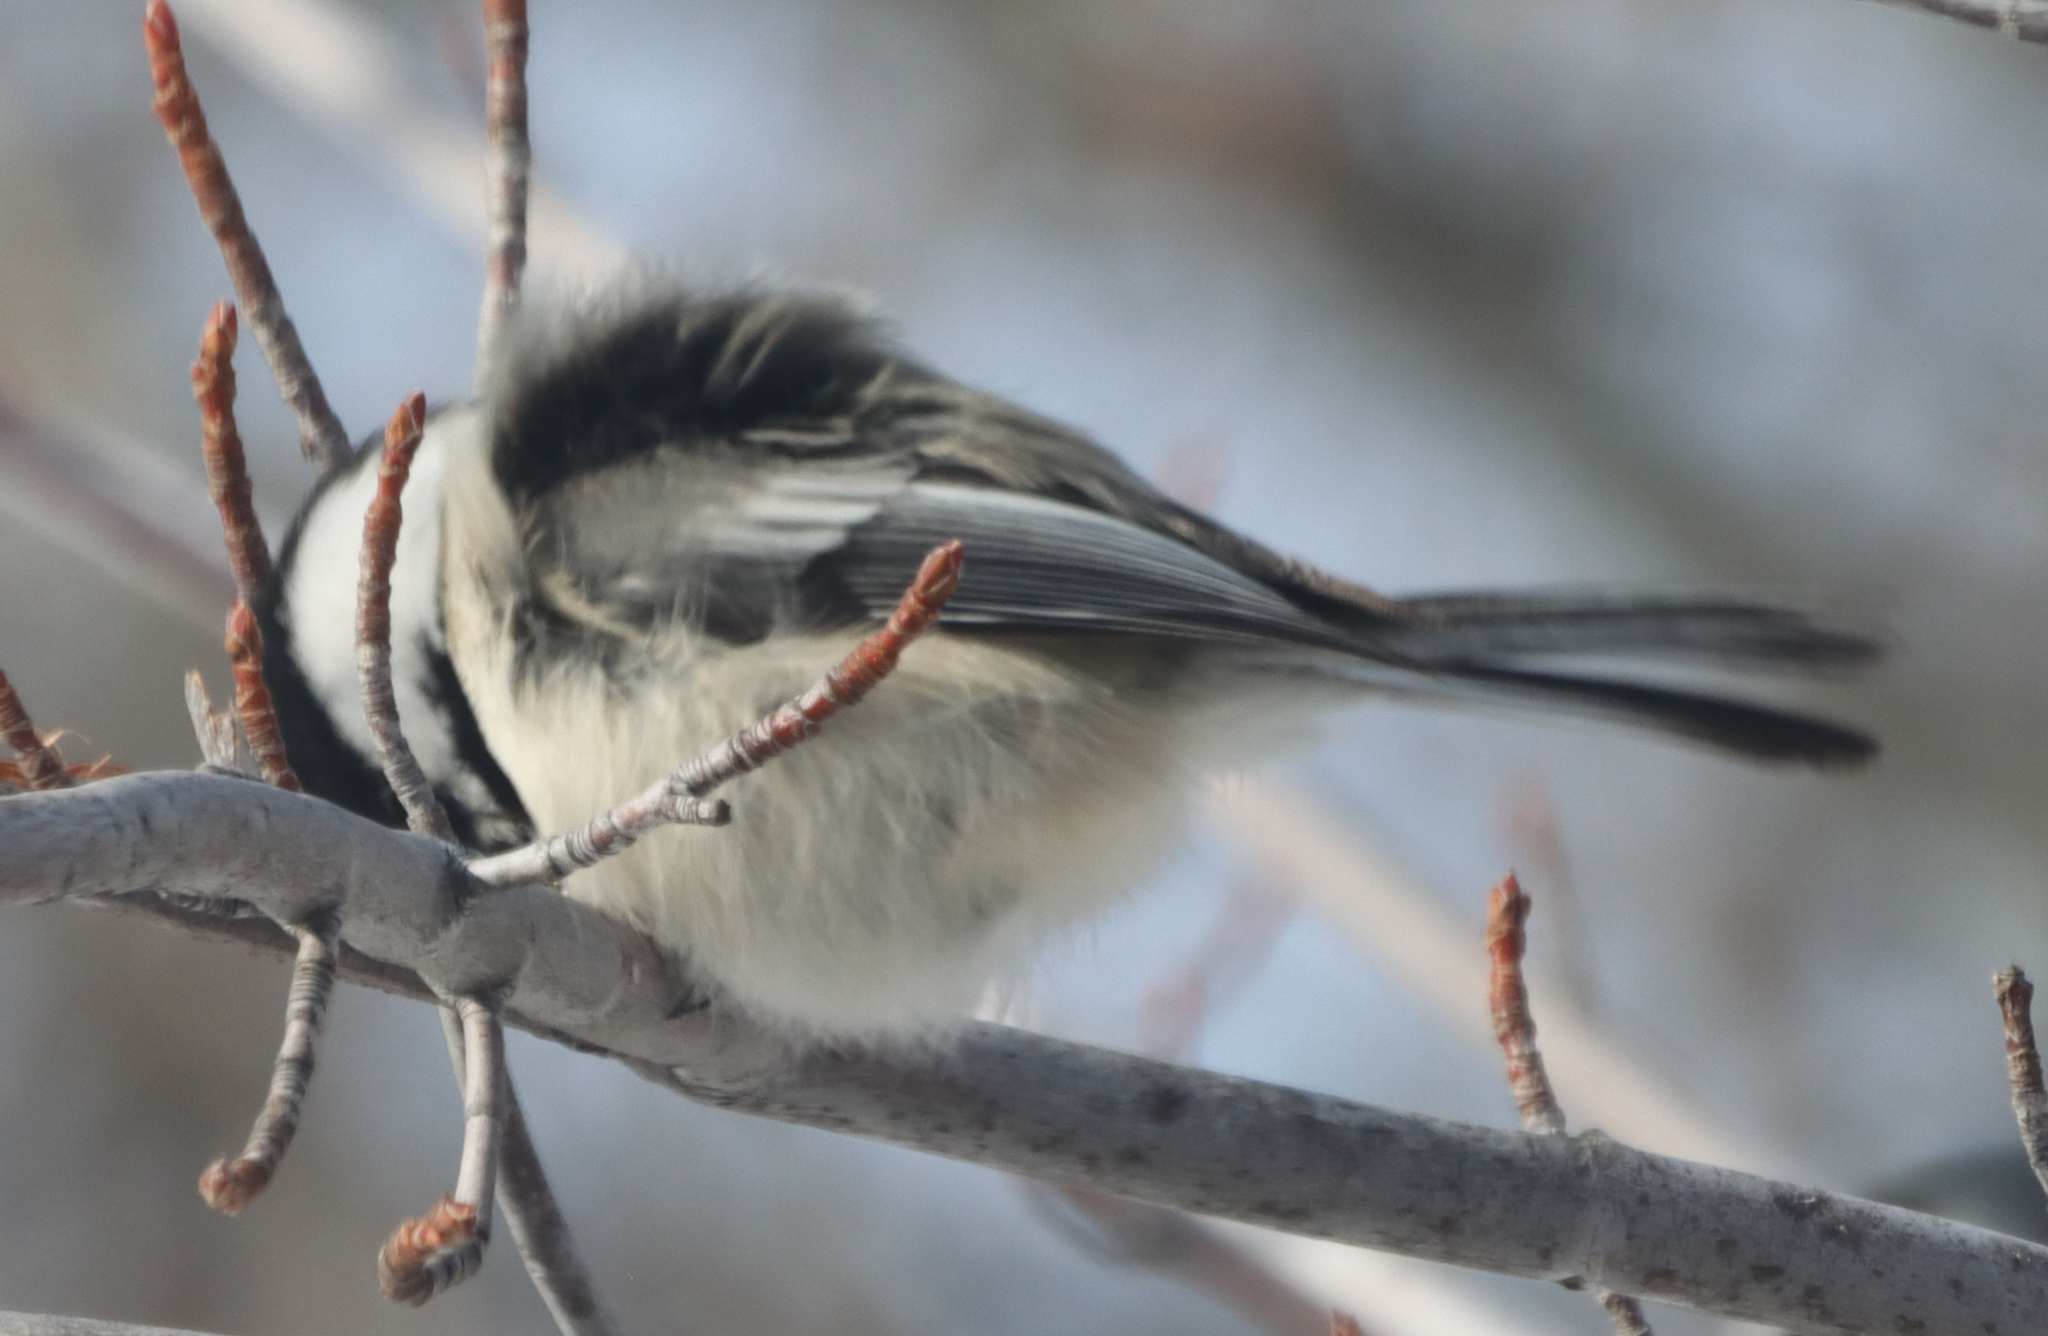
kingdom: Animalia
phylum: Chordata
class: Aves
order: Passeriformes
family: Paridae
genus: Poecile
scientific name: Poecile atricapillus
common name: Black-capped chickadee
